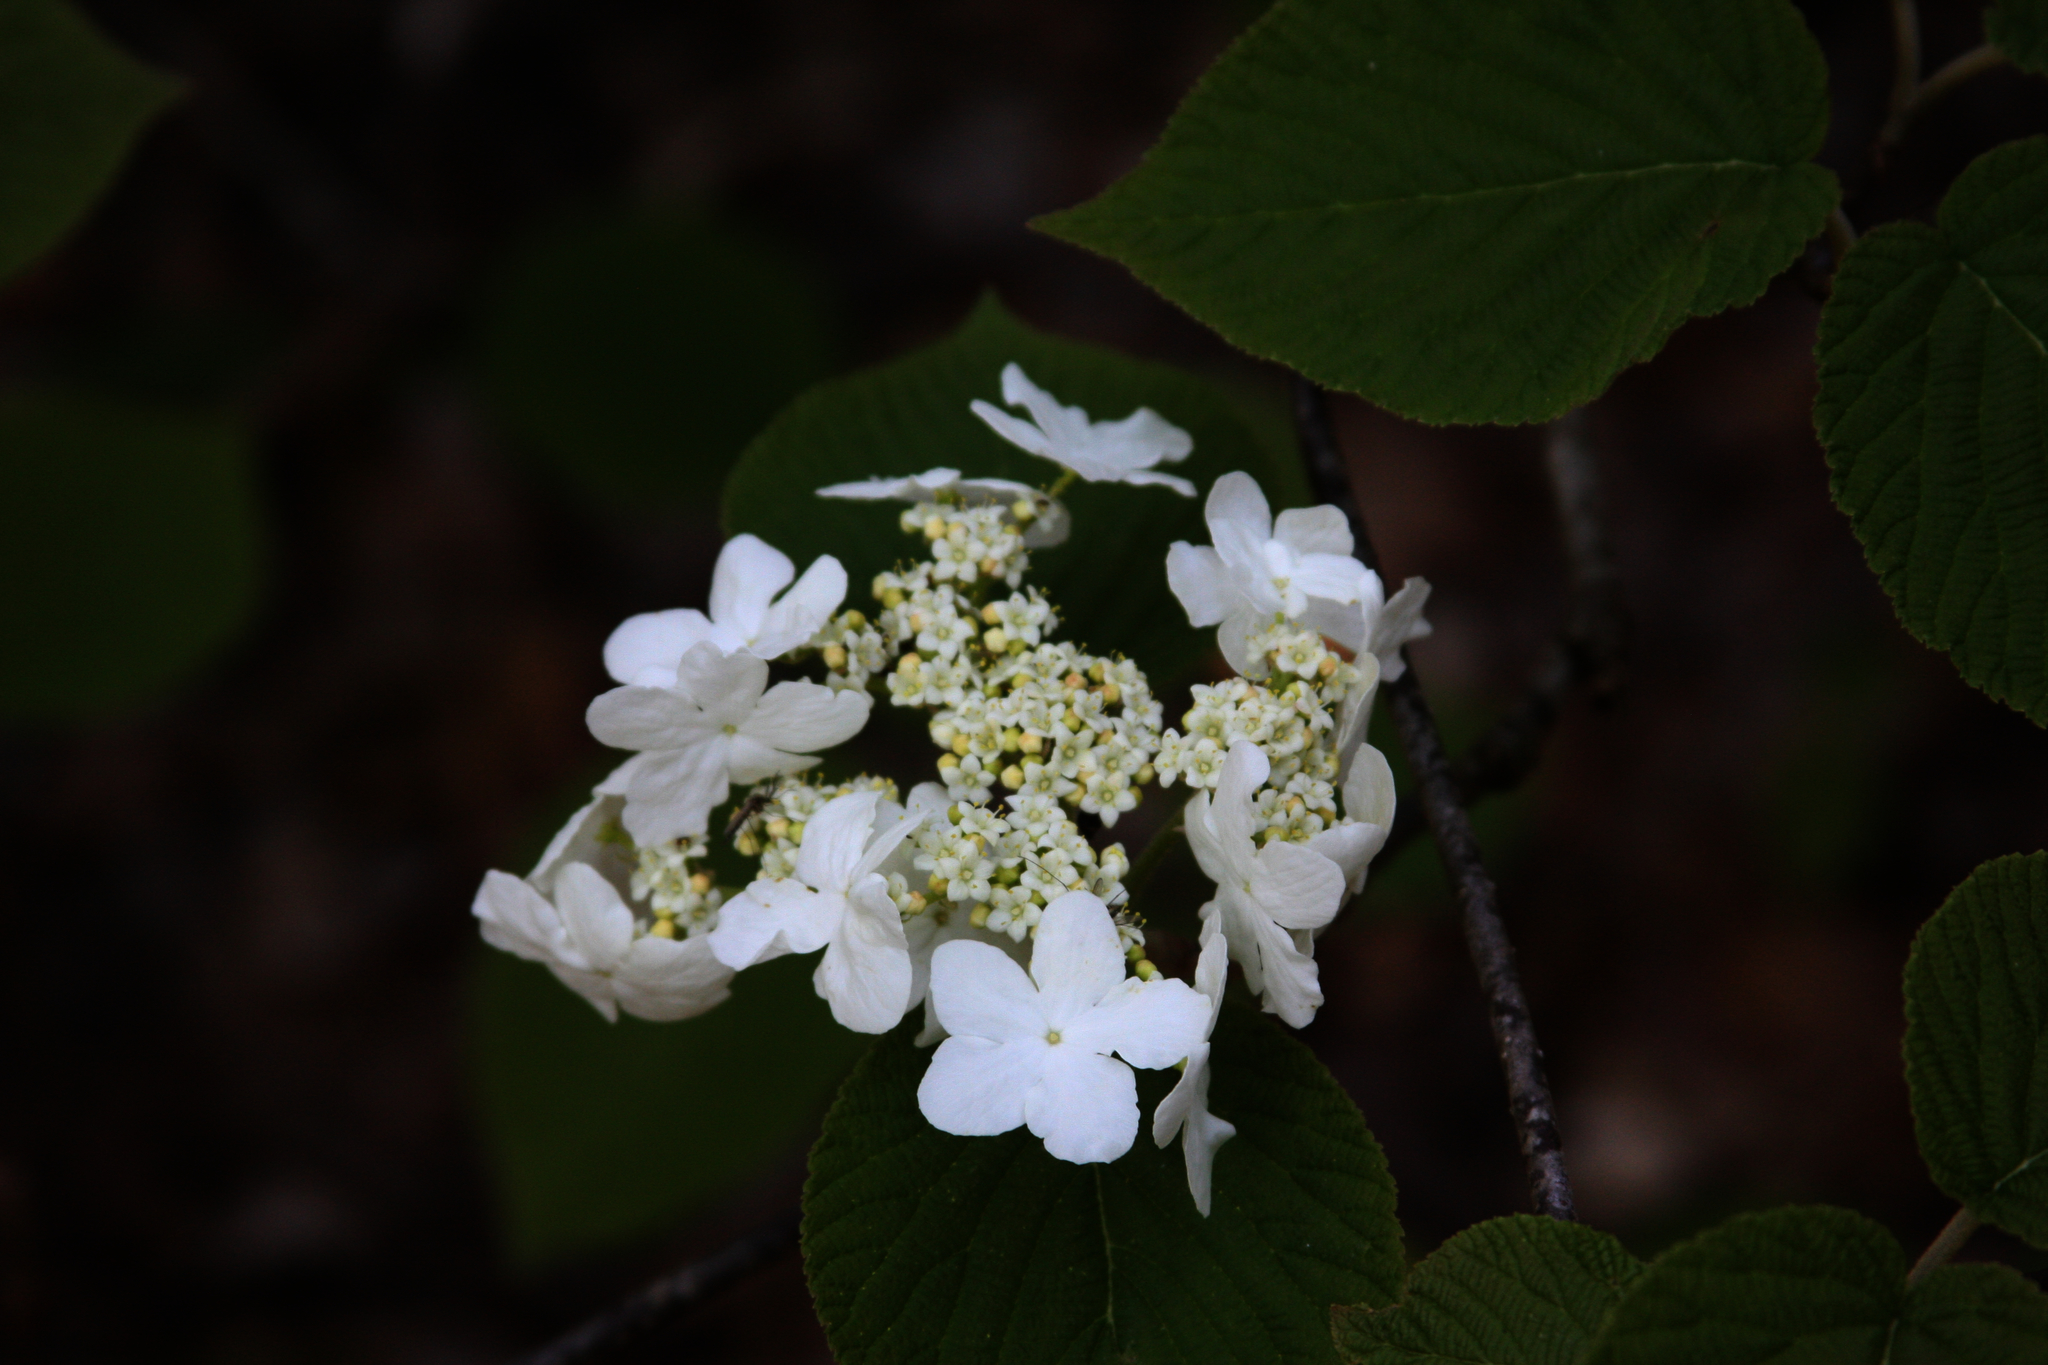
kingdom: Plantae
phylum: Tracheophyta
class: Magnoliopsida
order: Dipsacales
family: Viburnaceae
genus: Viburnum
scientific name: Viburnum lantanoides
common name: Hobblebush
